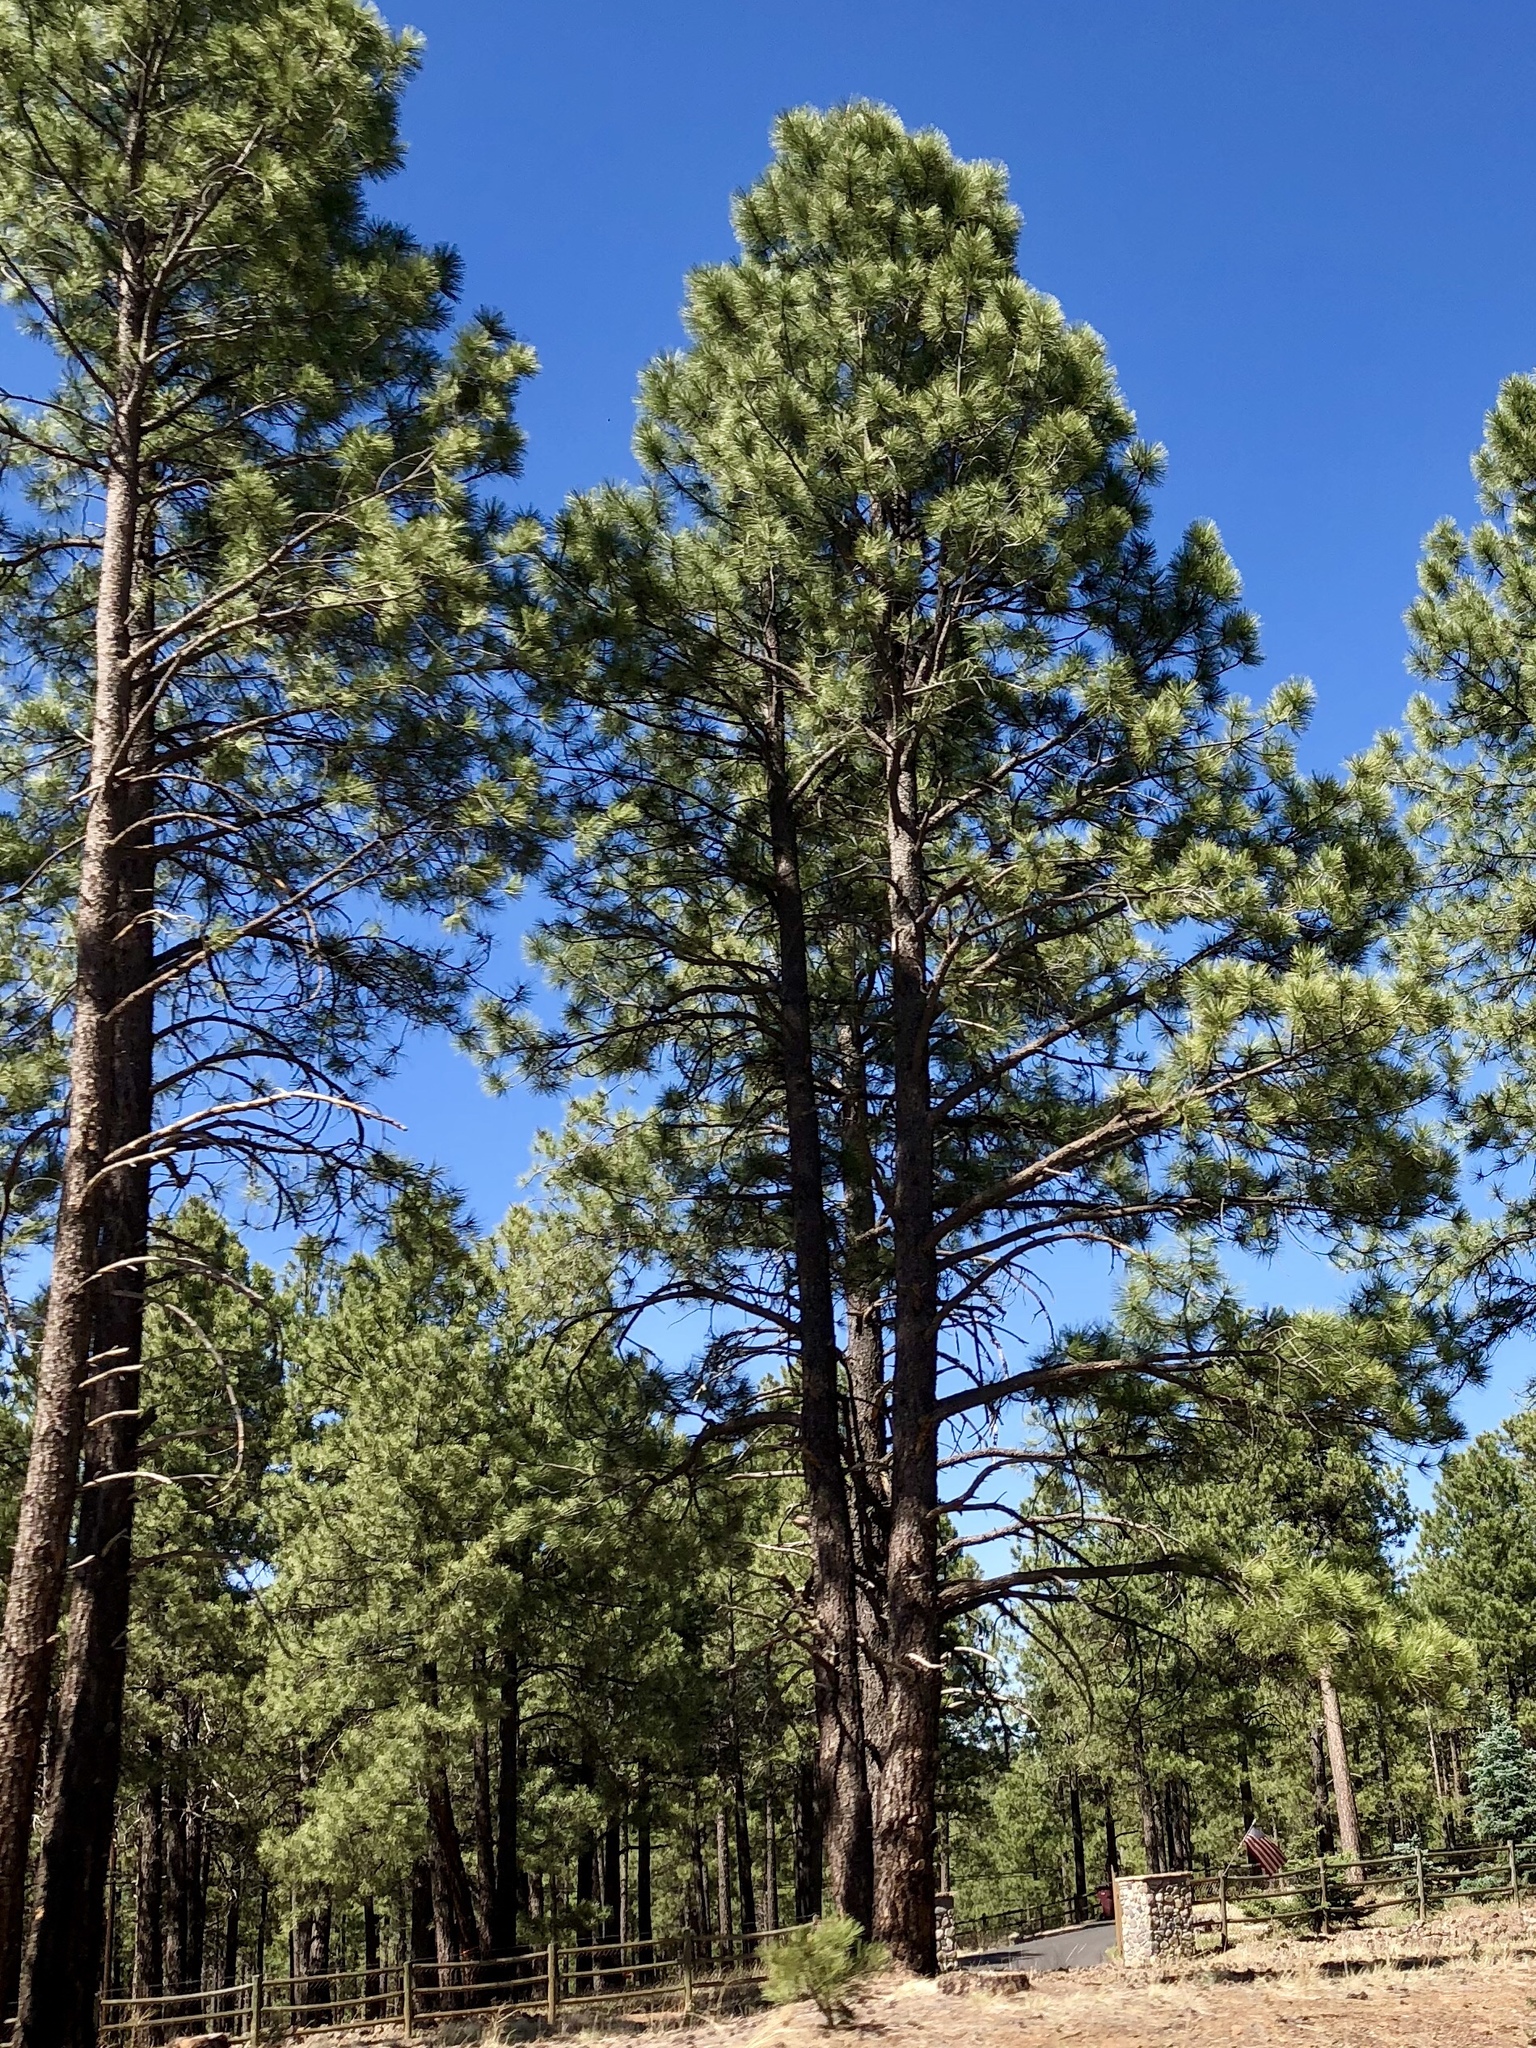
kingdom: Plantae
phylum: Tracheophyta
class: Pinopsida
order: Pinales
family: Pinaceae
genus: Pinus
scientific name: Pinus ponderosa
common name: Western yellow-pine
